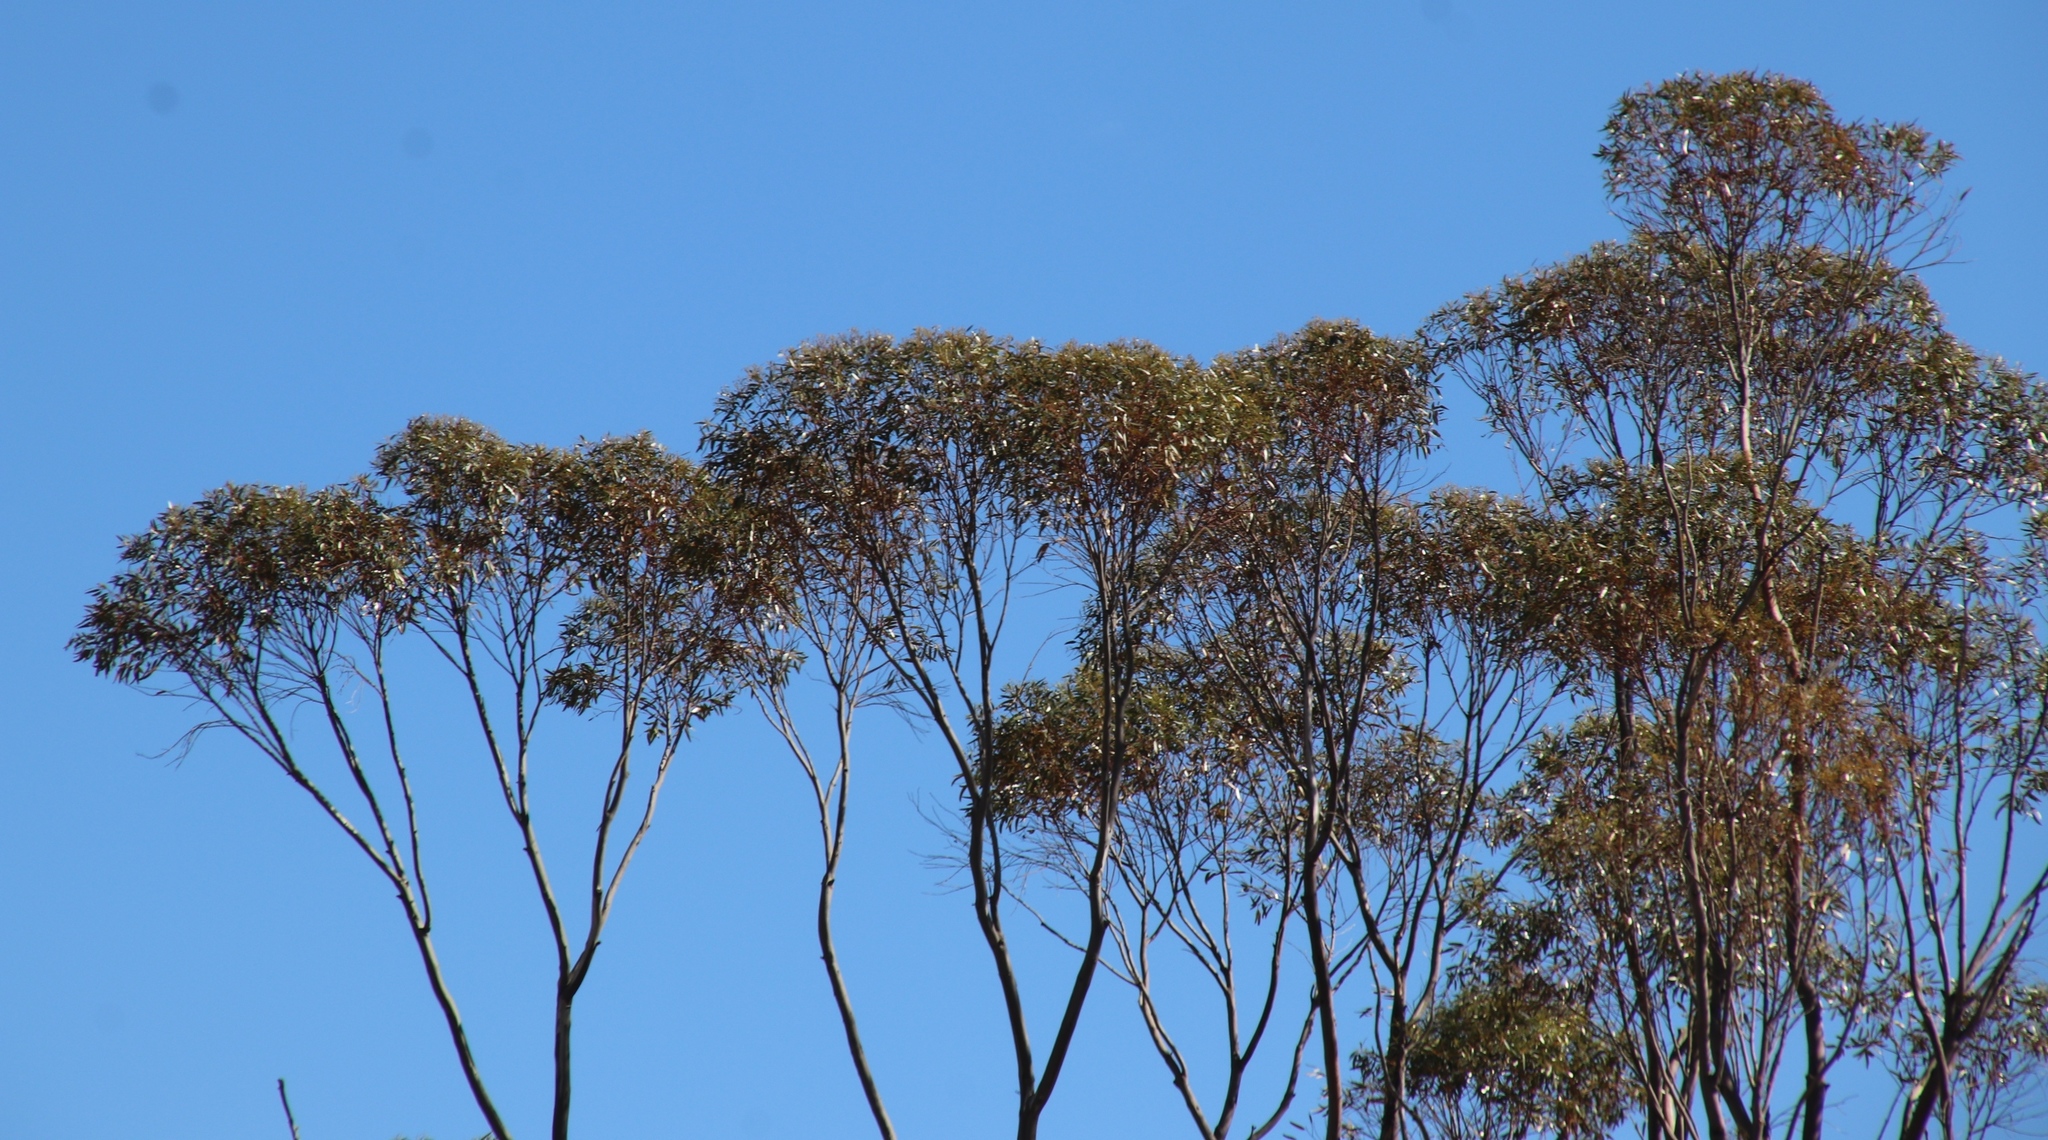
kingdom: Plantae
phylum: Tracheophyta
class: Magnoliopsida
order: Myrtales
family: Myrtaceae
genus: Eucalyptus
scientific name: Eucalyptus cladocalyx
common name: Sugargum
